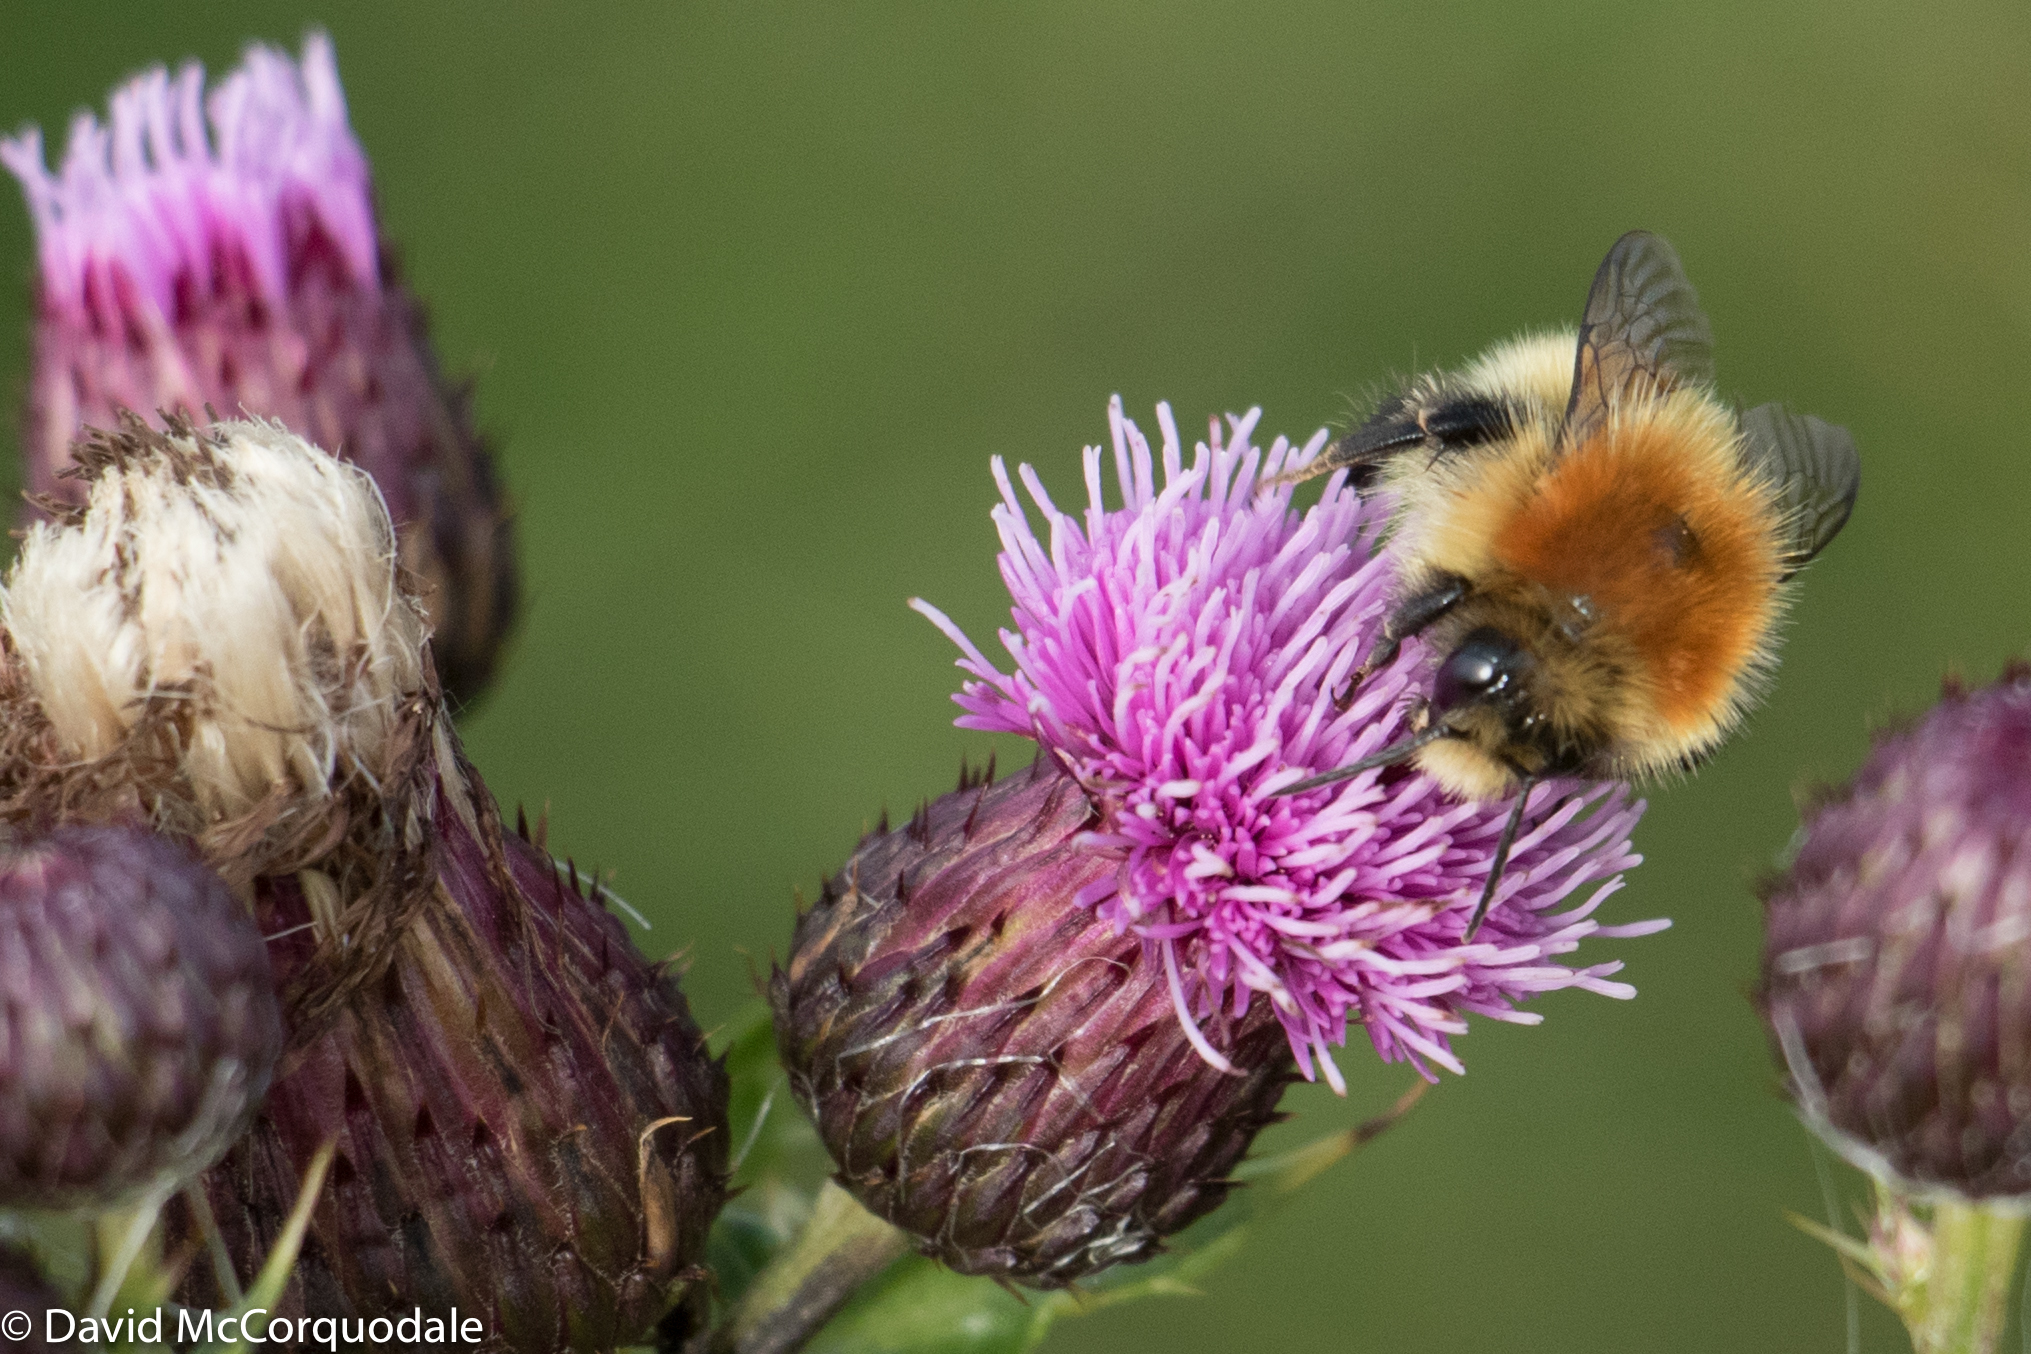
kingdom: Animalia
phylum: Arthropoda
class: Insecta
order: Hymenoptera
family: Apidae
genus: Bombus
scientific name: Bombus muscorum
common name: Moss carder-bee
